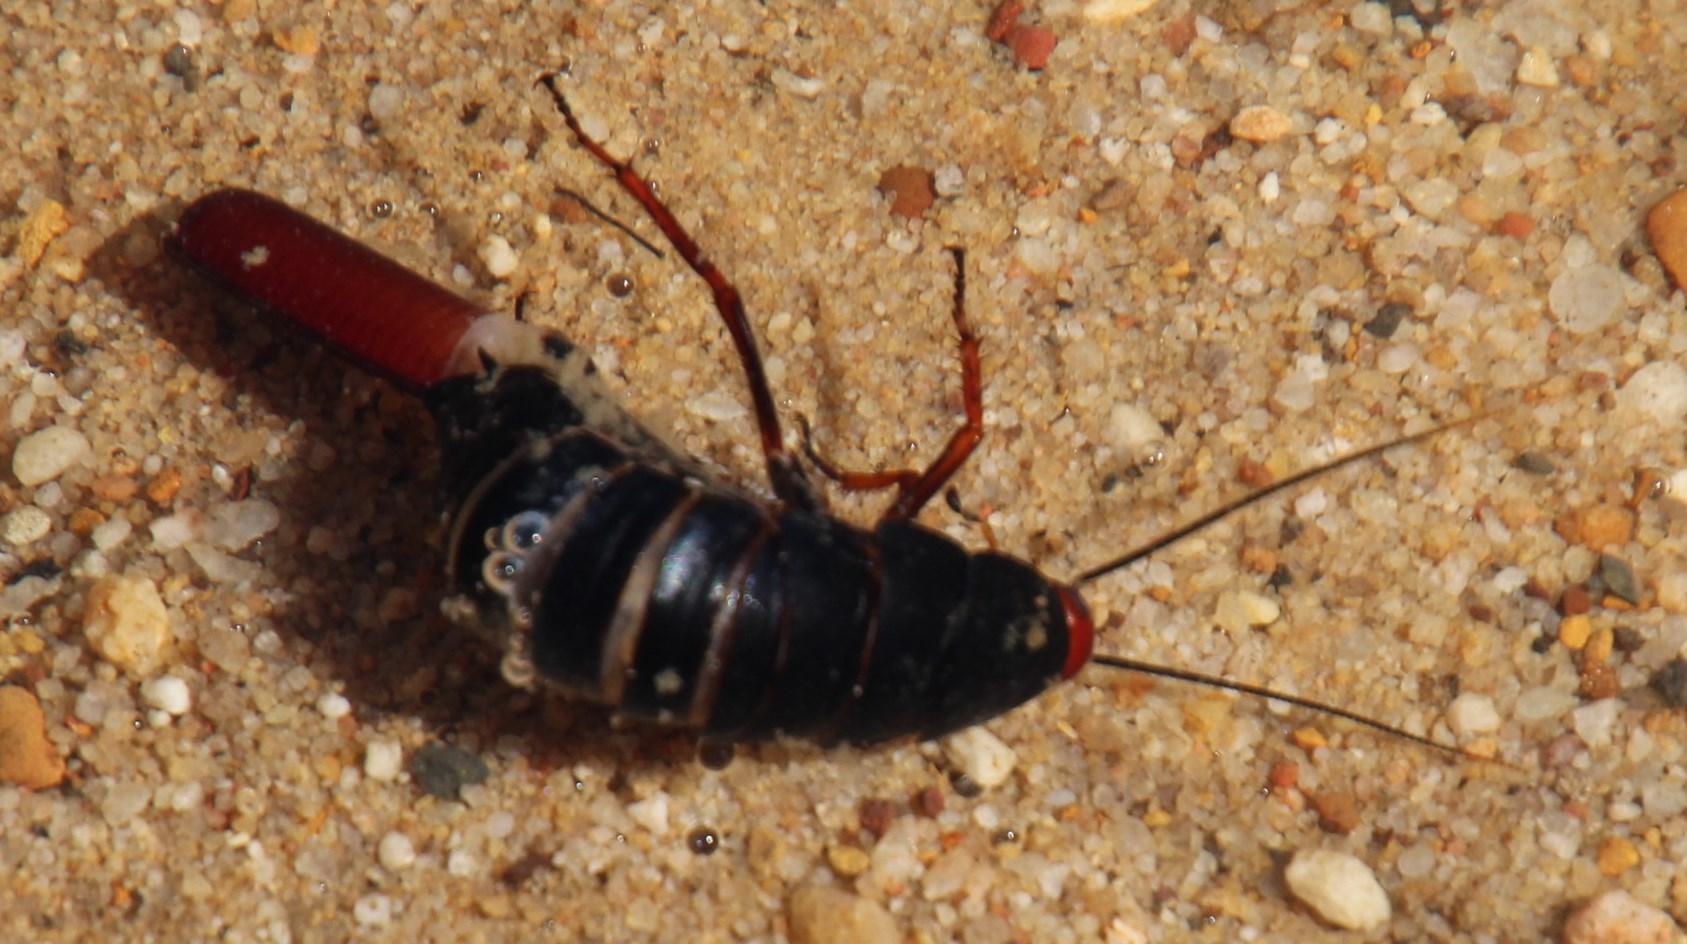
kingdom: Animalia
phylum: Arthropoda
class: Insecta
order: Blattodea
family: Blattidae
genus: Deropeltis
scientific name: Deropeltis erythrocephala
